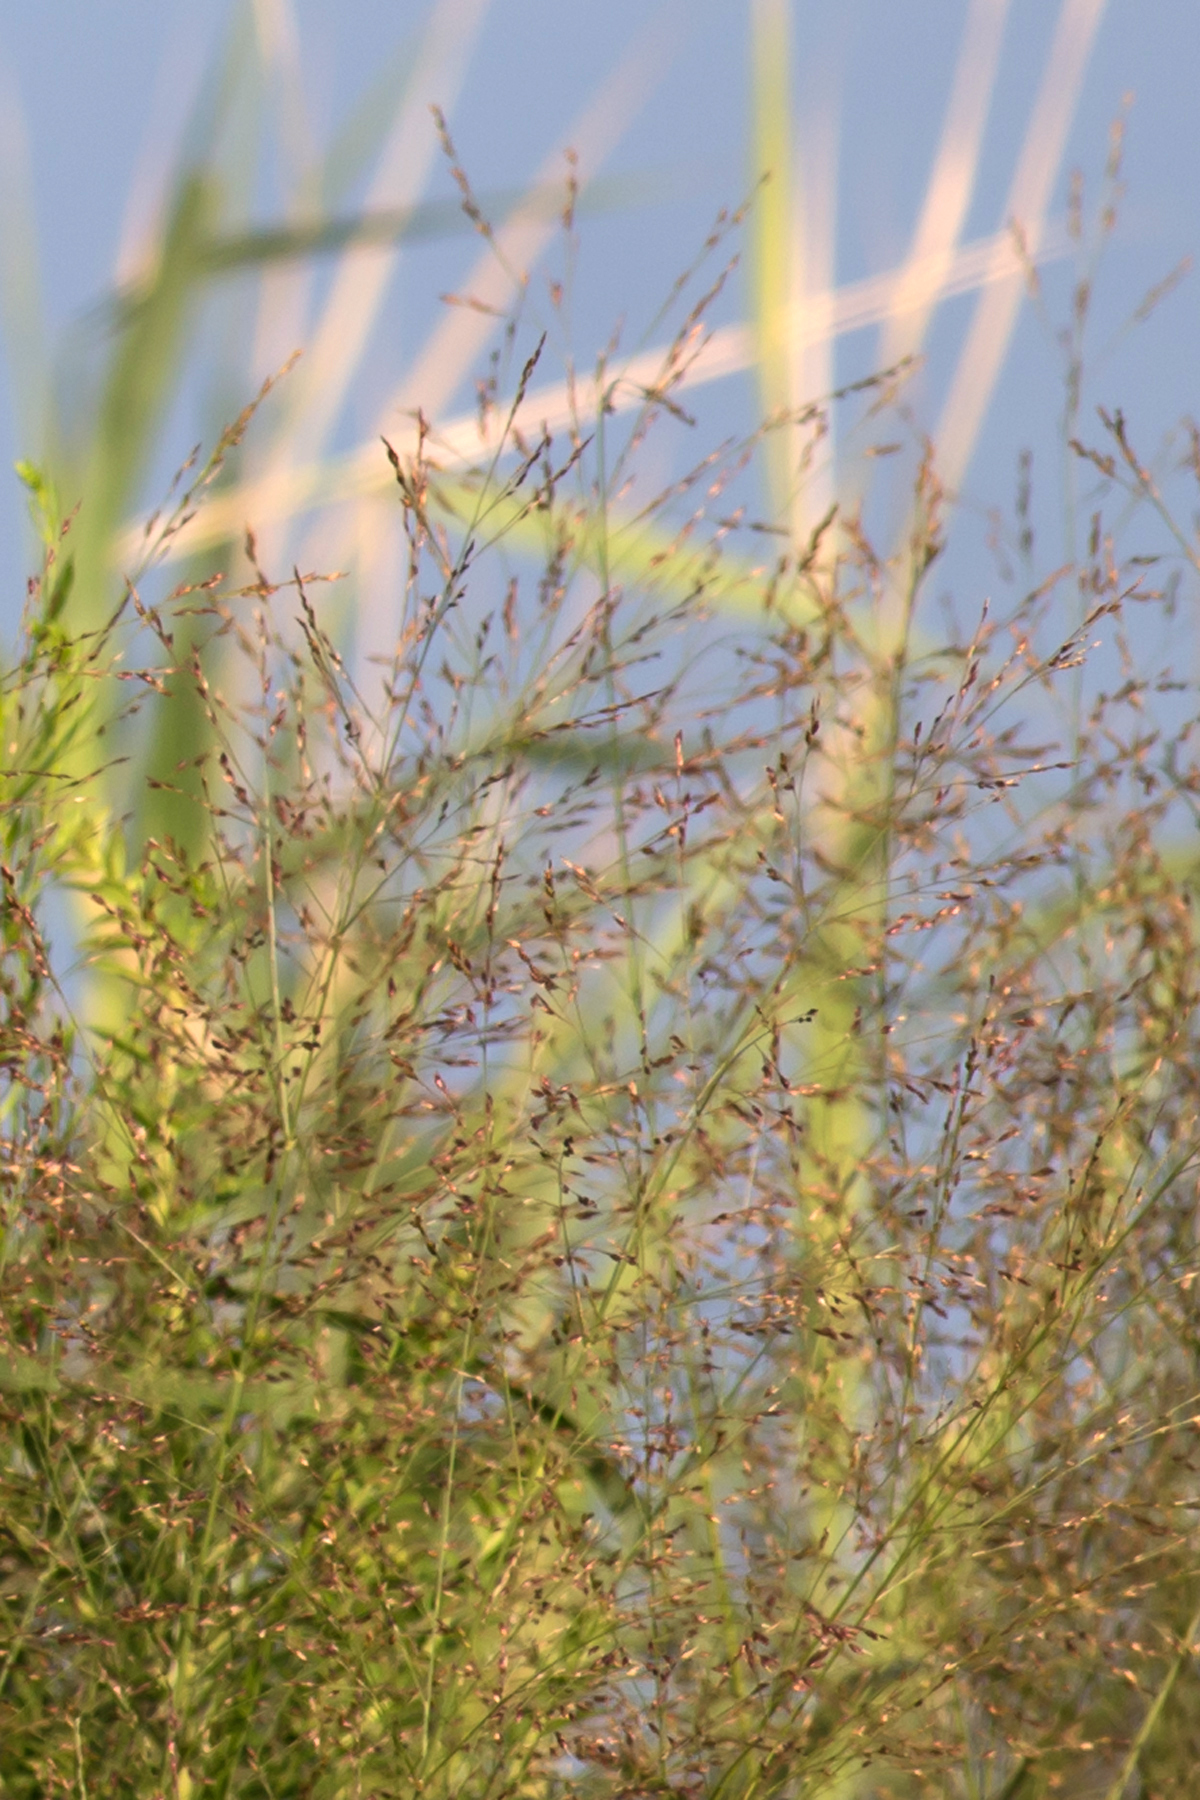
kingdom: Plantae
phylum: Tracheophyta
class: Liliopsida
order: Poales
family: Poaceae
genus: Panicum
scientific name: Panicum virgatum
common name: Switchgrass
